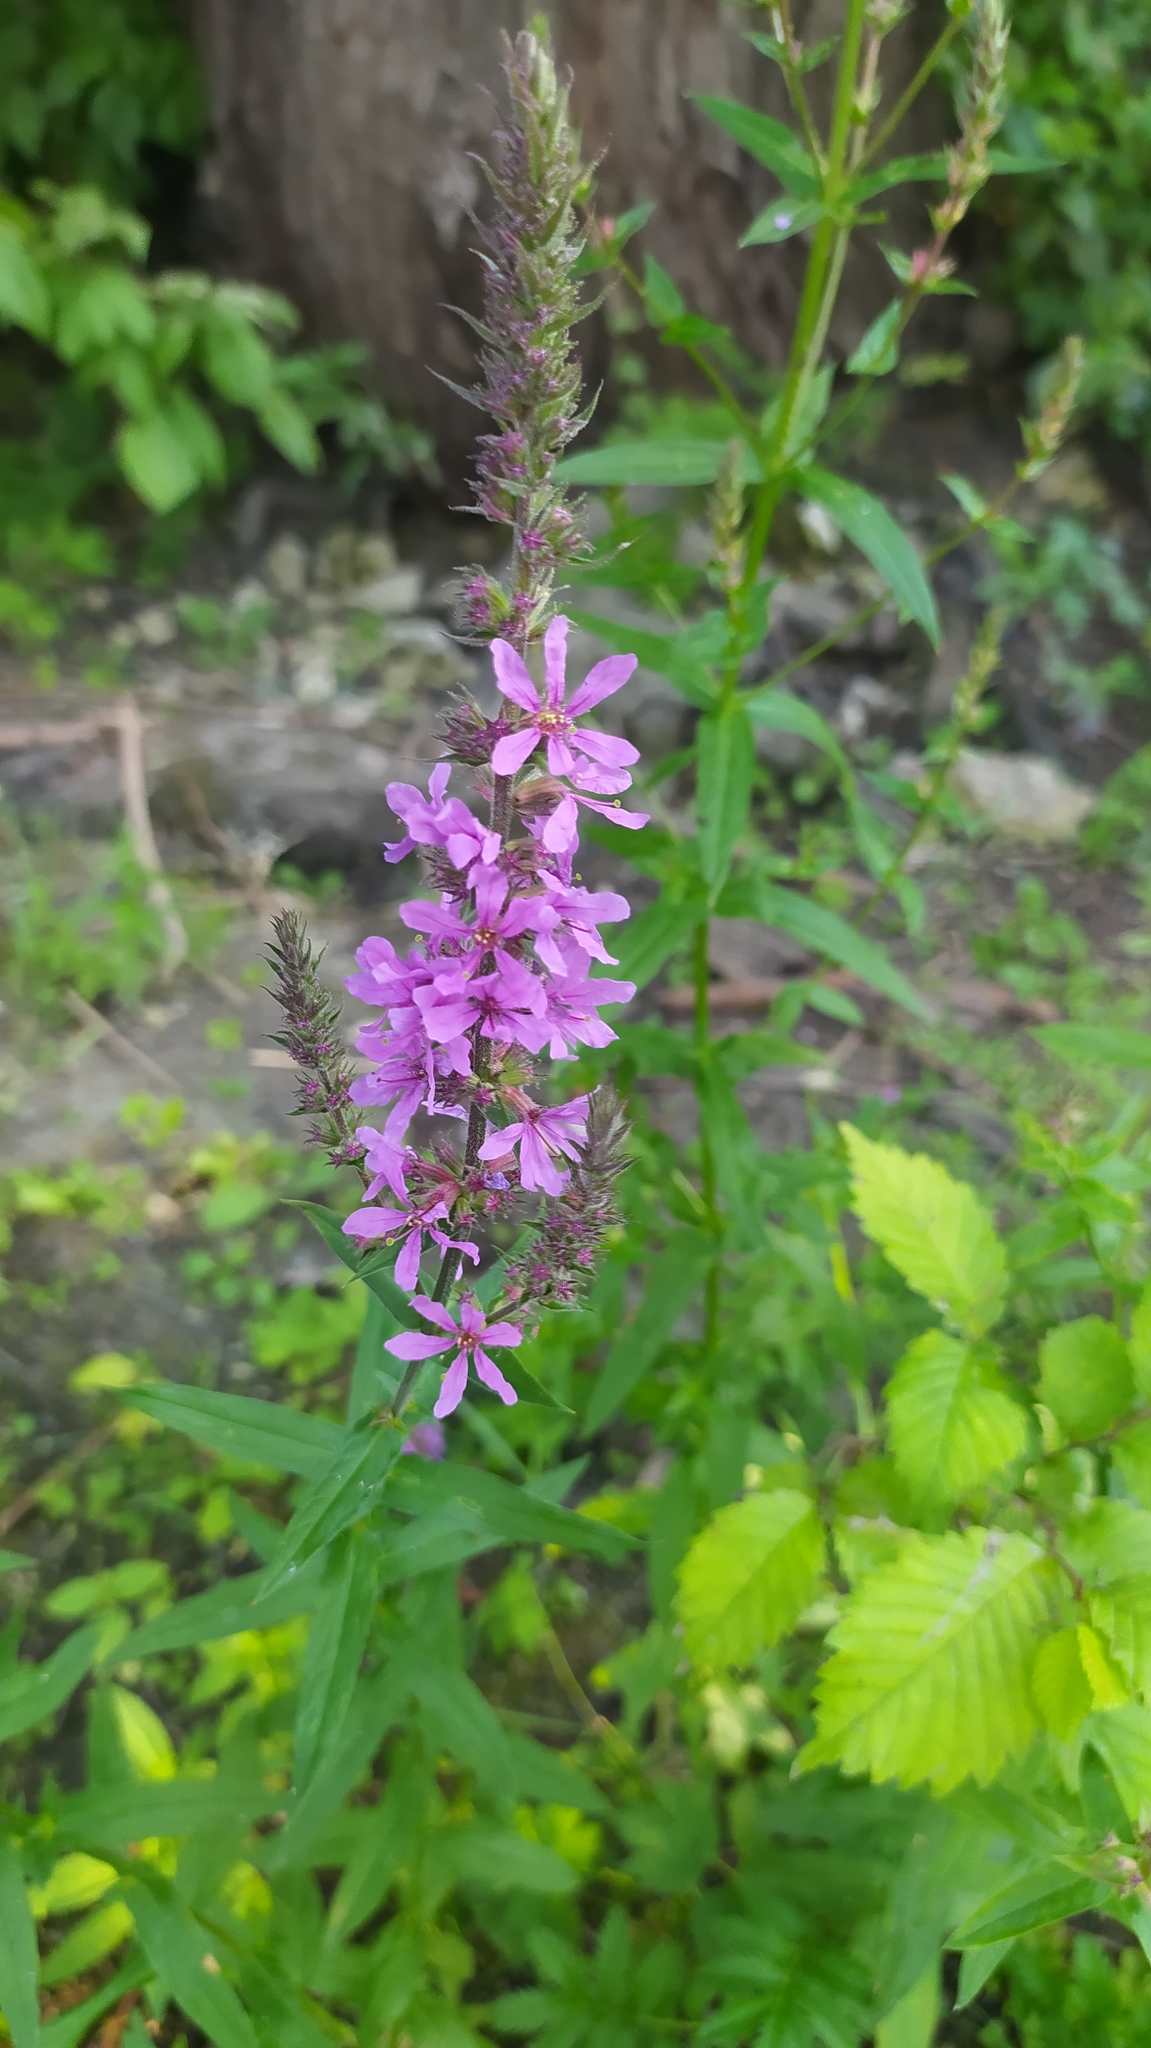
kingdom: Plantae
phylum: Tracheophyta
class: Magnoliopsida
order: Myrtales
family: Lythraceae
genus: Lythrum
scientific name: Lythrum salicaria
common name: Purple loosestrife
